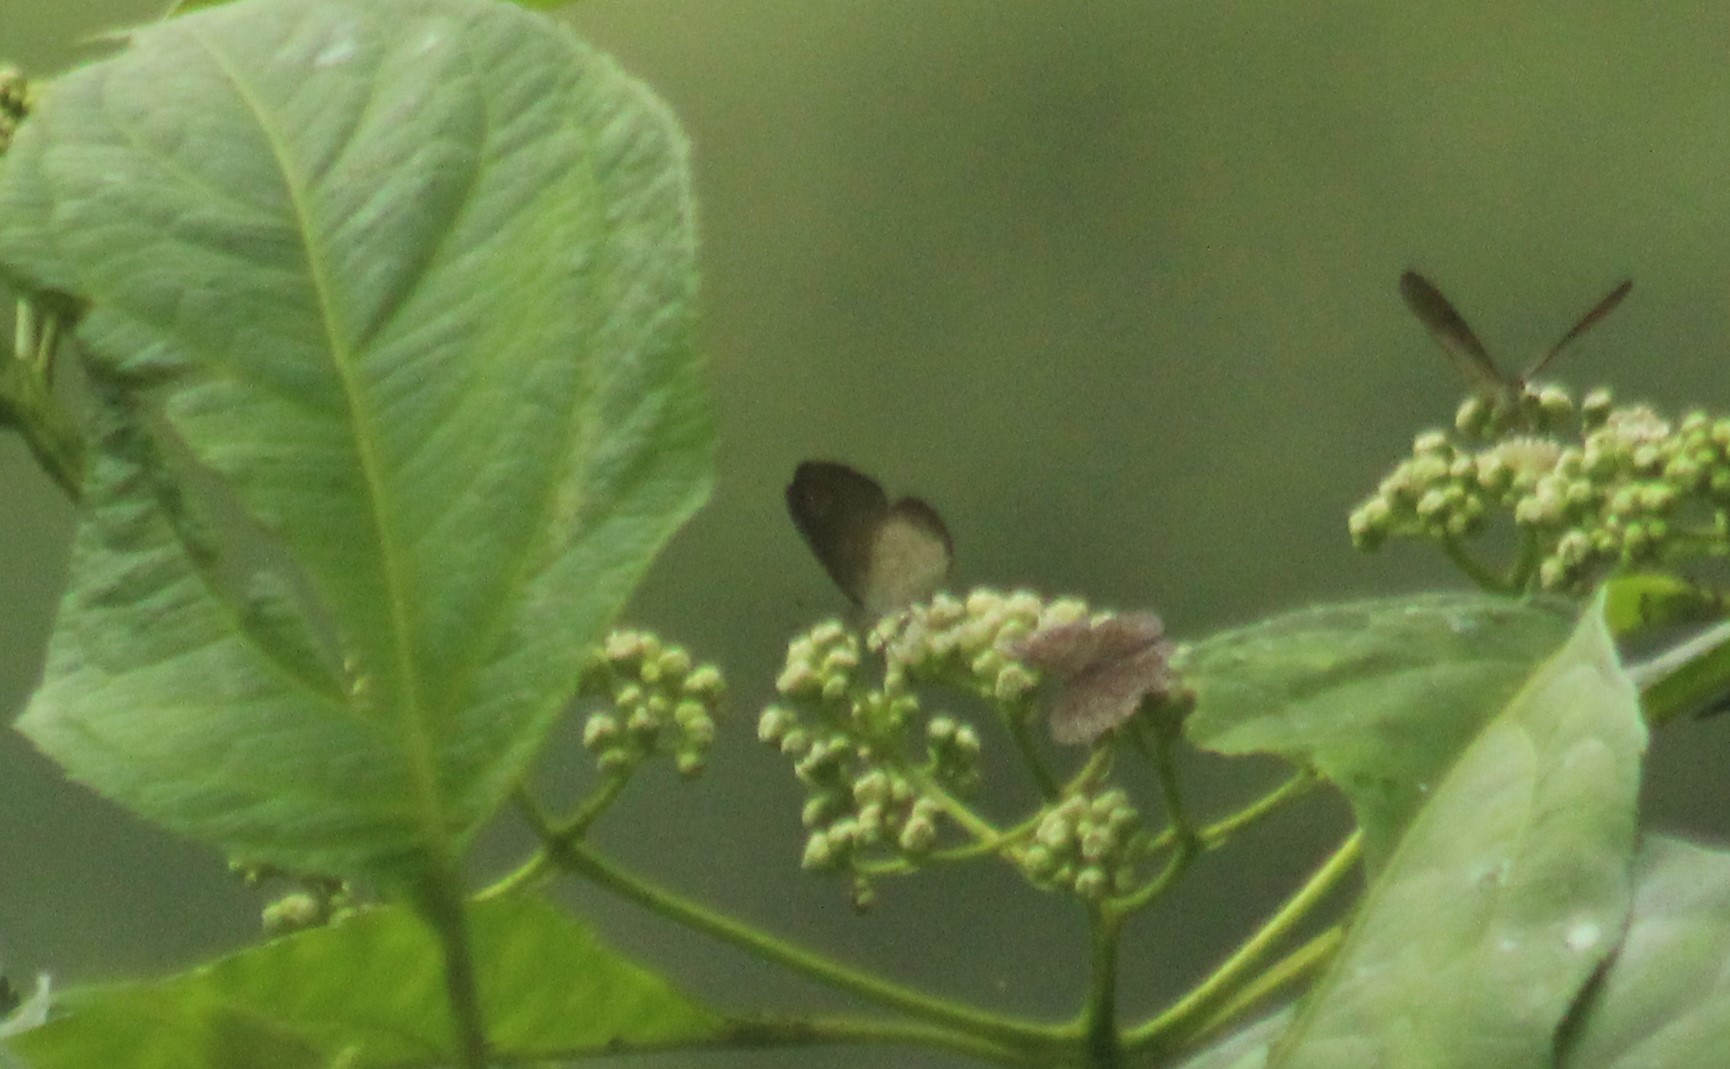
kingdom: Animalia
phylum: Arthropoda
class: Insecta
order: Lepidoptera
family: Nymphalidae
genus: Tegosa
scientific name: Tegosa tissoides
